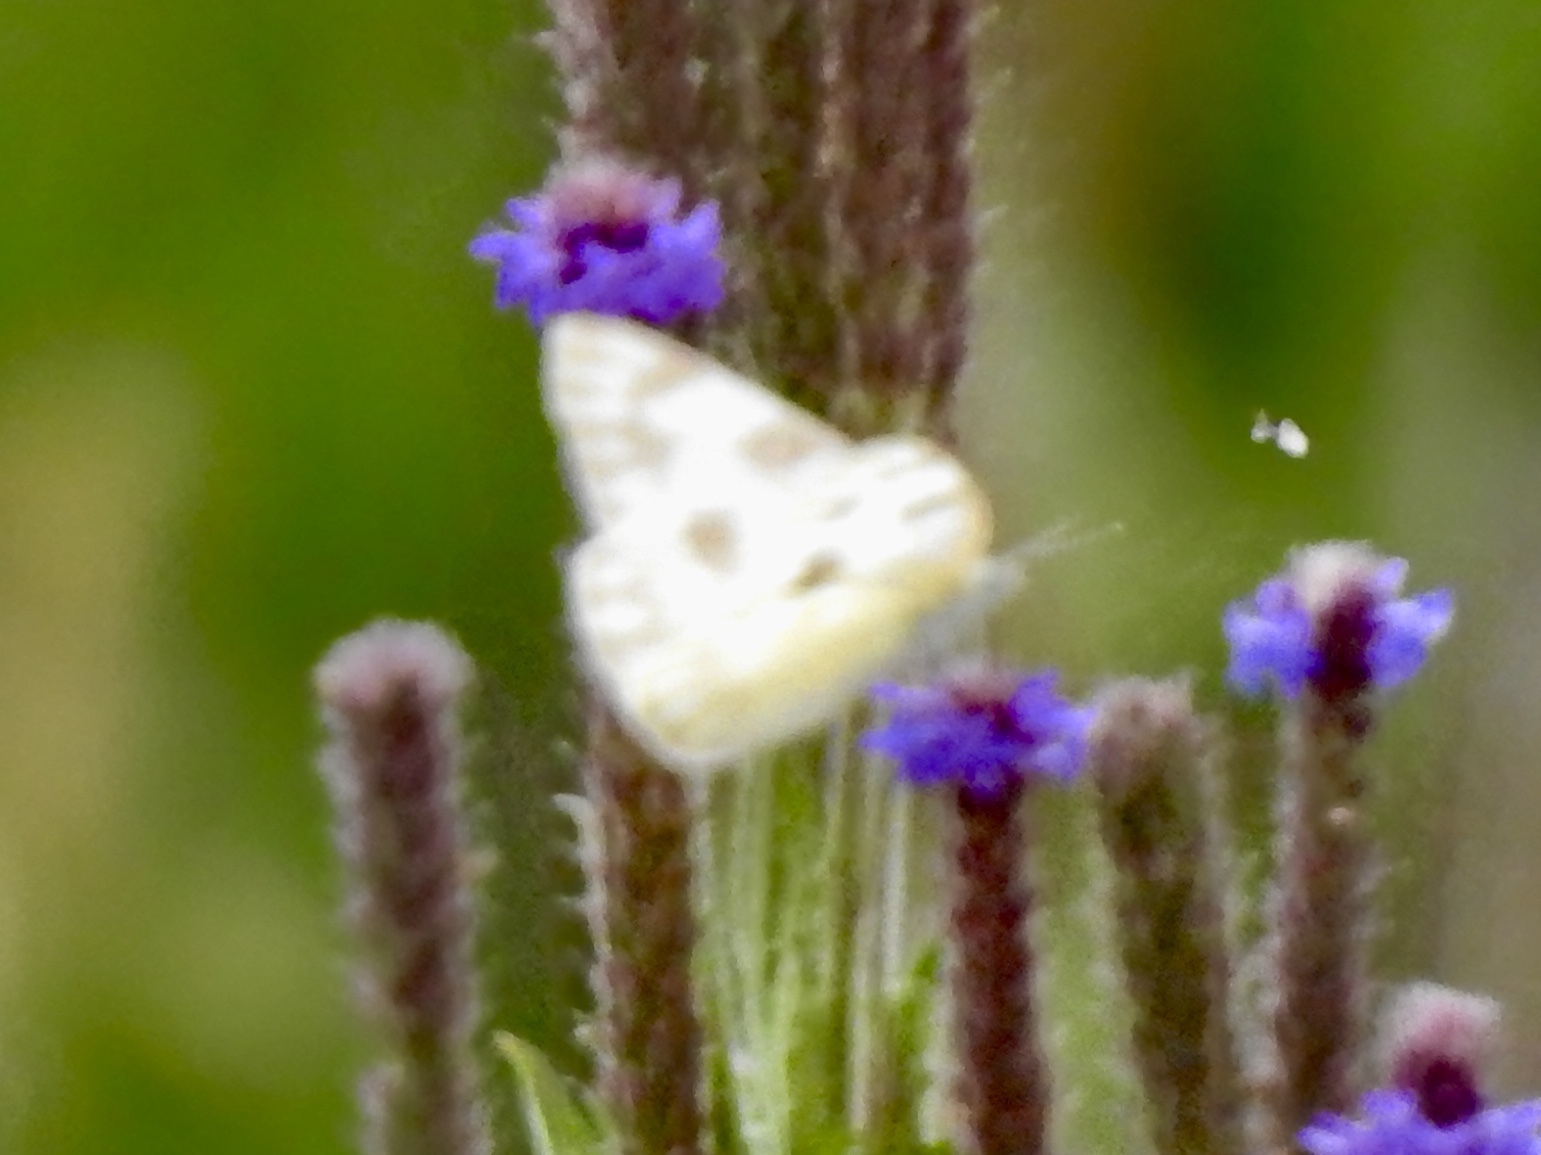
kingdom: Animalia
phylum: Arthropoda
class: Insecta
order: Lepidoptera
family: Pieridae
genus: Pontia
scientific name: Pontia protodice
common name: Checkered white
